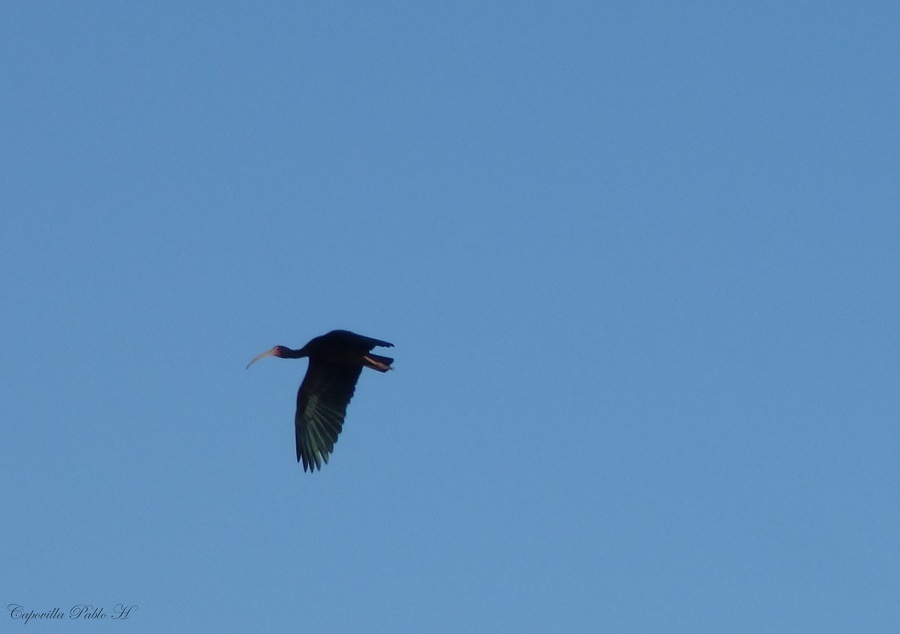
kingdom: Animalia
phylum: Chordata
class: Aves
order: Pelecaniformes
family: Threskiornithidae
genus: Phimosus
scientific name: Phimosus infuscatus
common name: Bare-faced ibis
